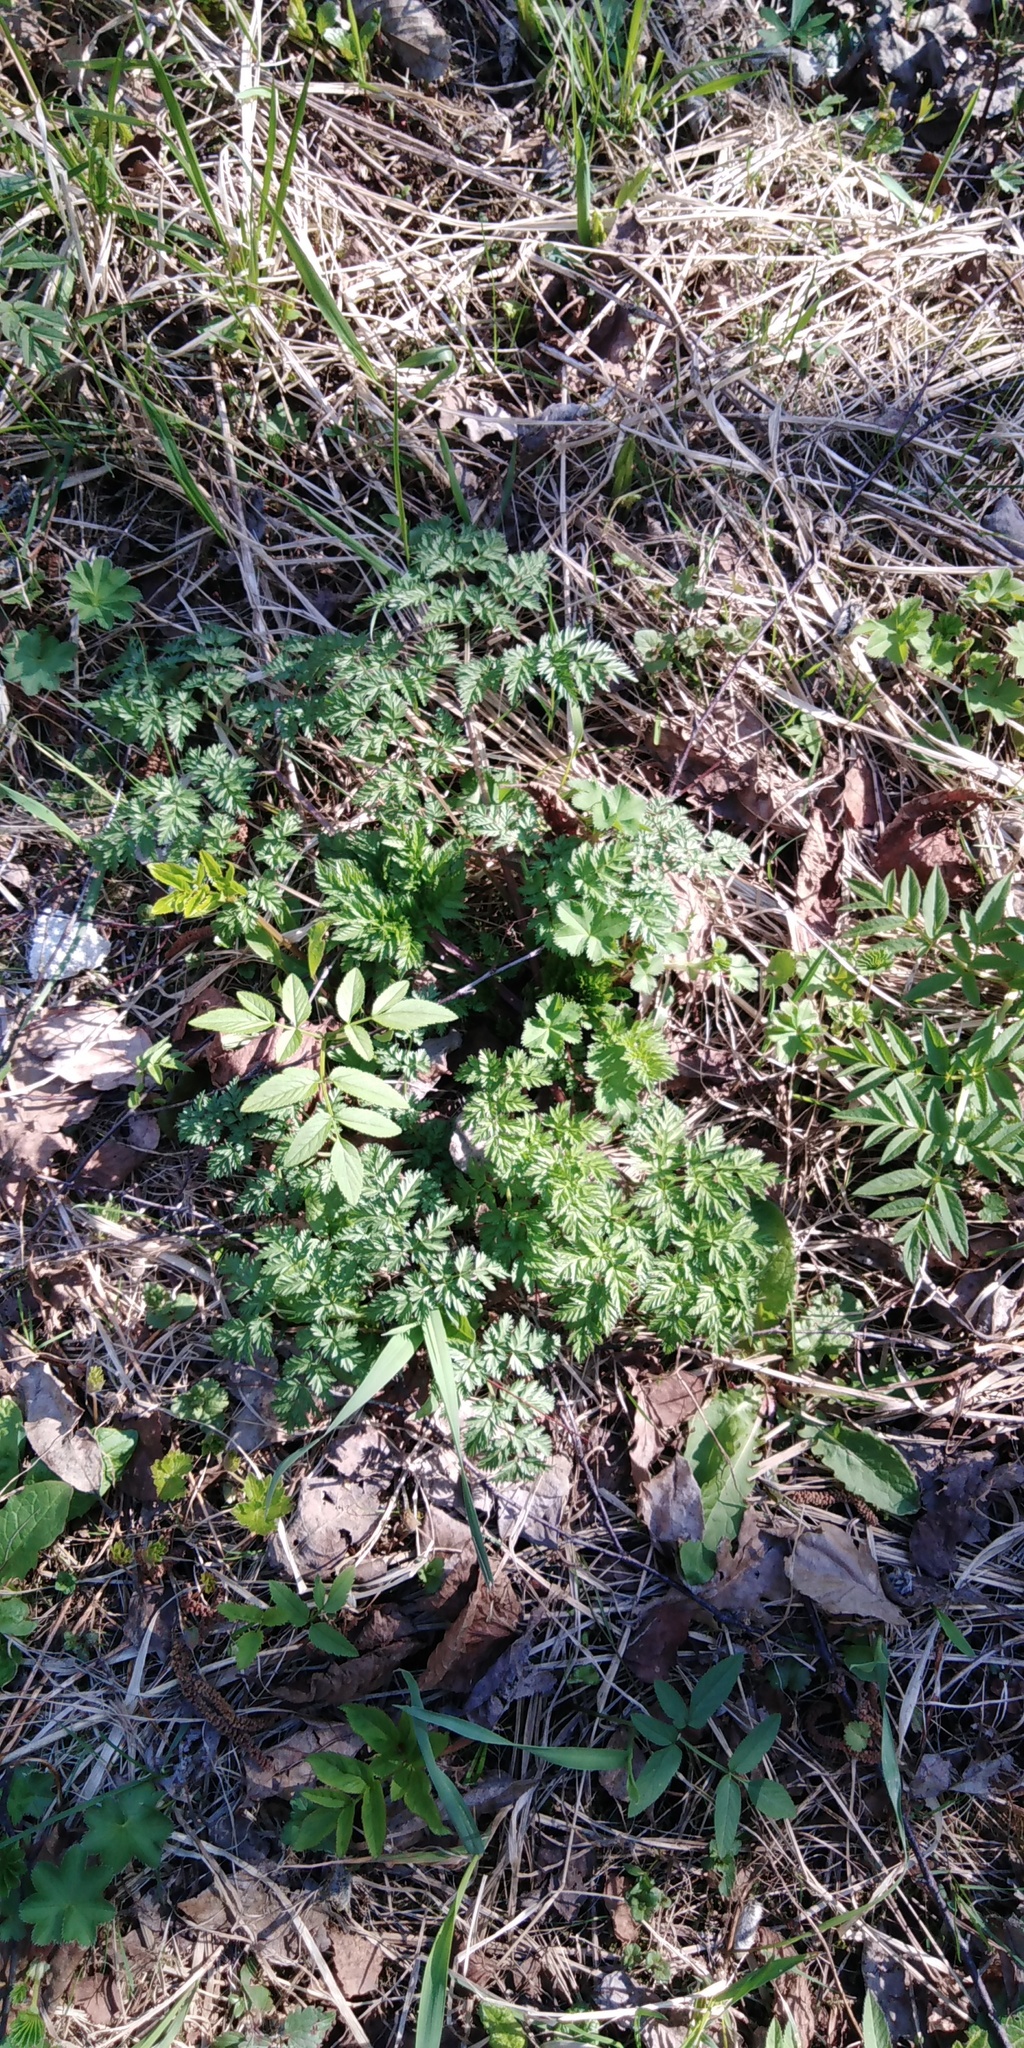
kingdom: Plantae
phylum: Tracheophyta
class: Magnoliopsida
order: Apiales
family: Apiaceae
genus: Anthriscus
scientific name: Anthriscus sylvestris
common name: Cow parsley
